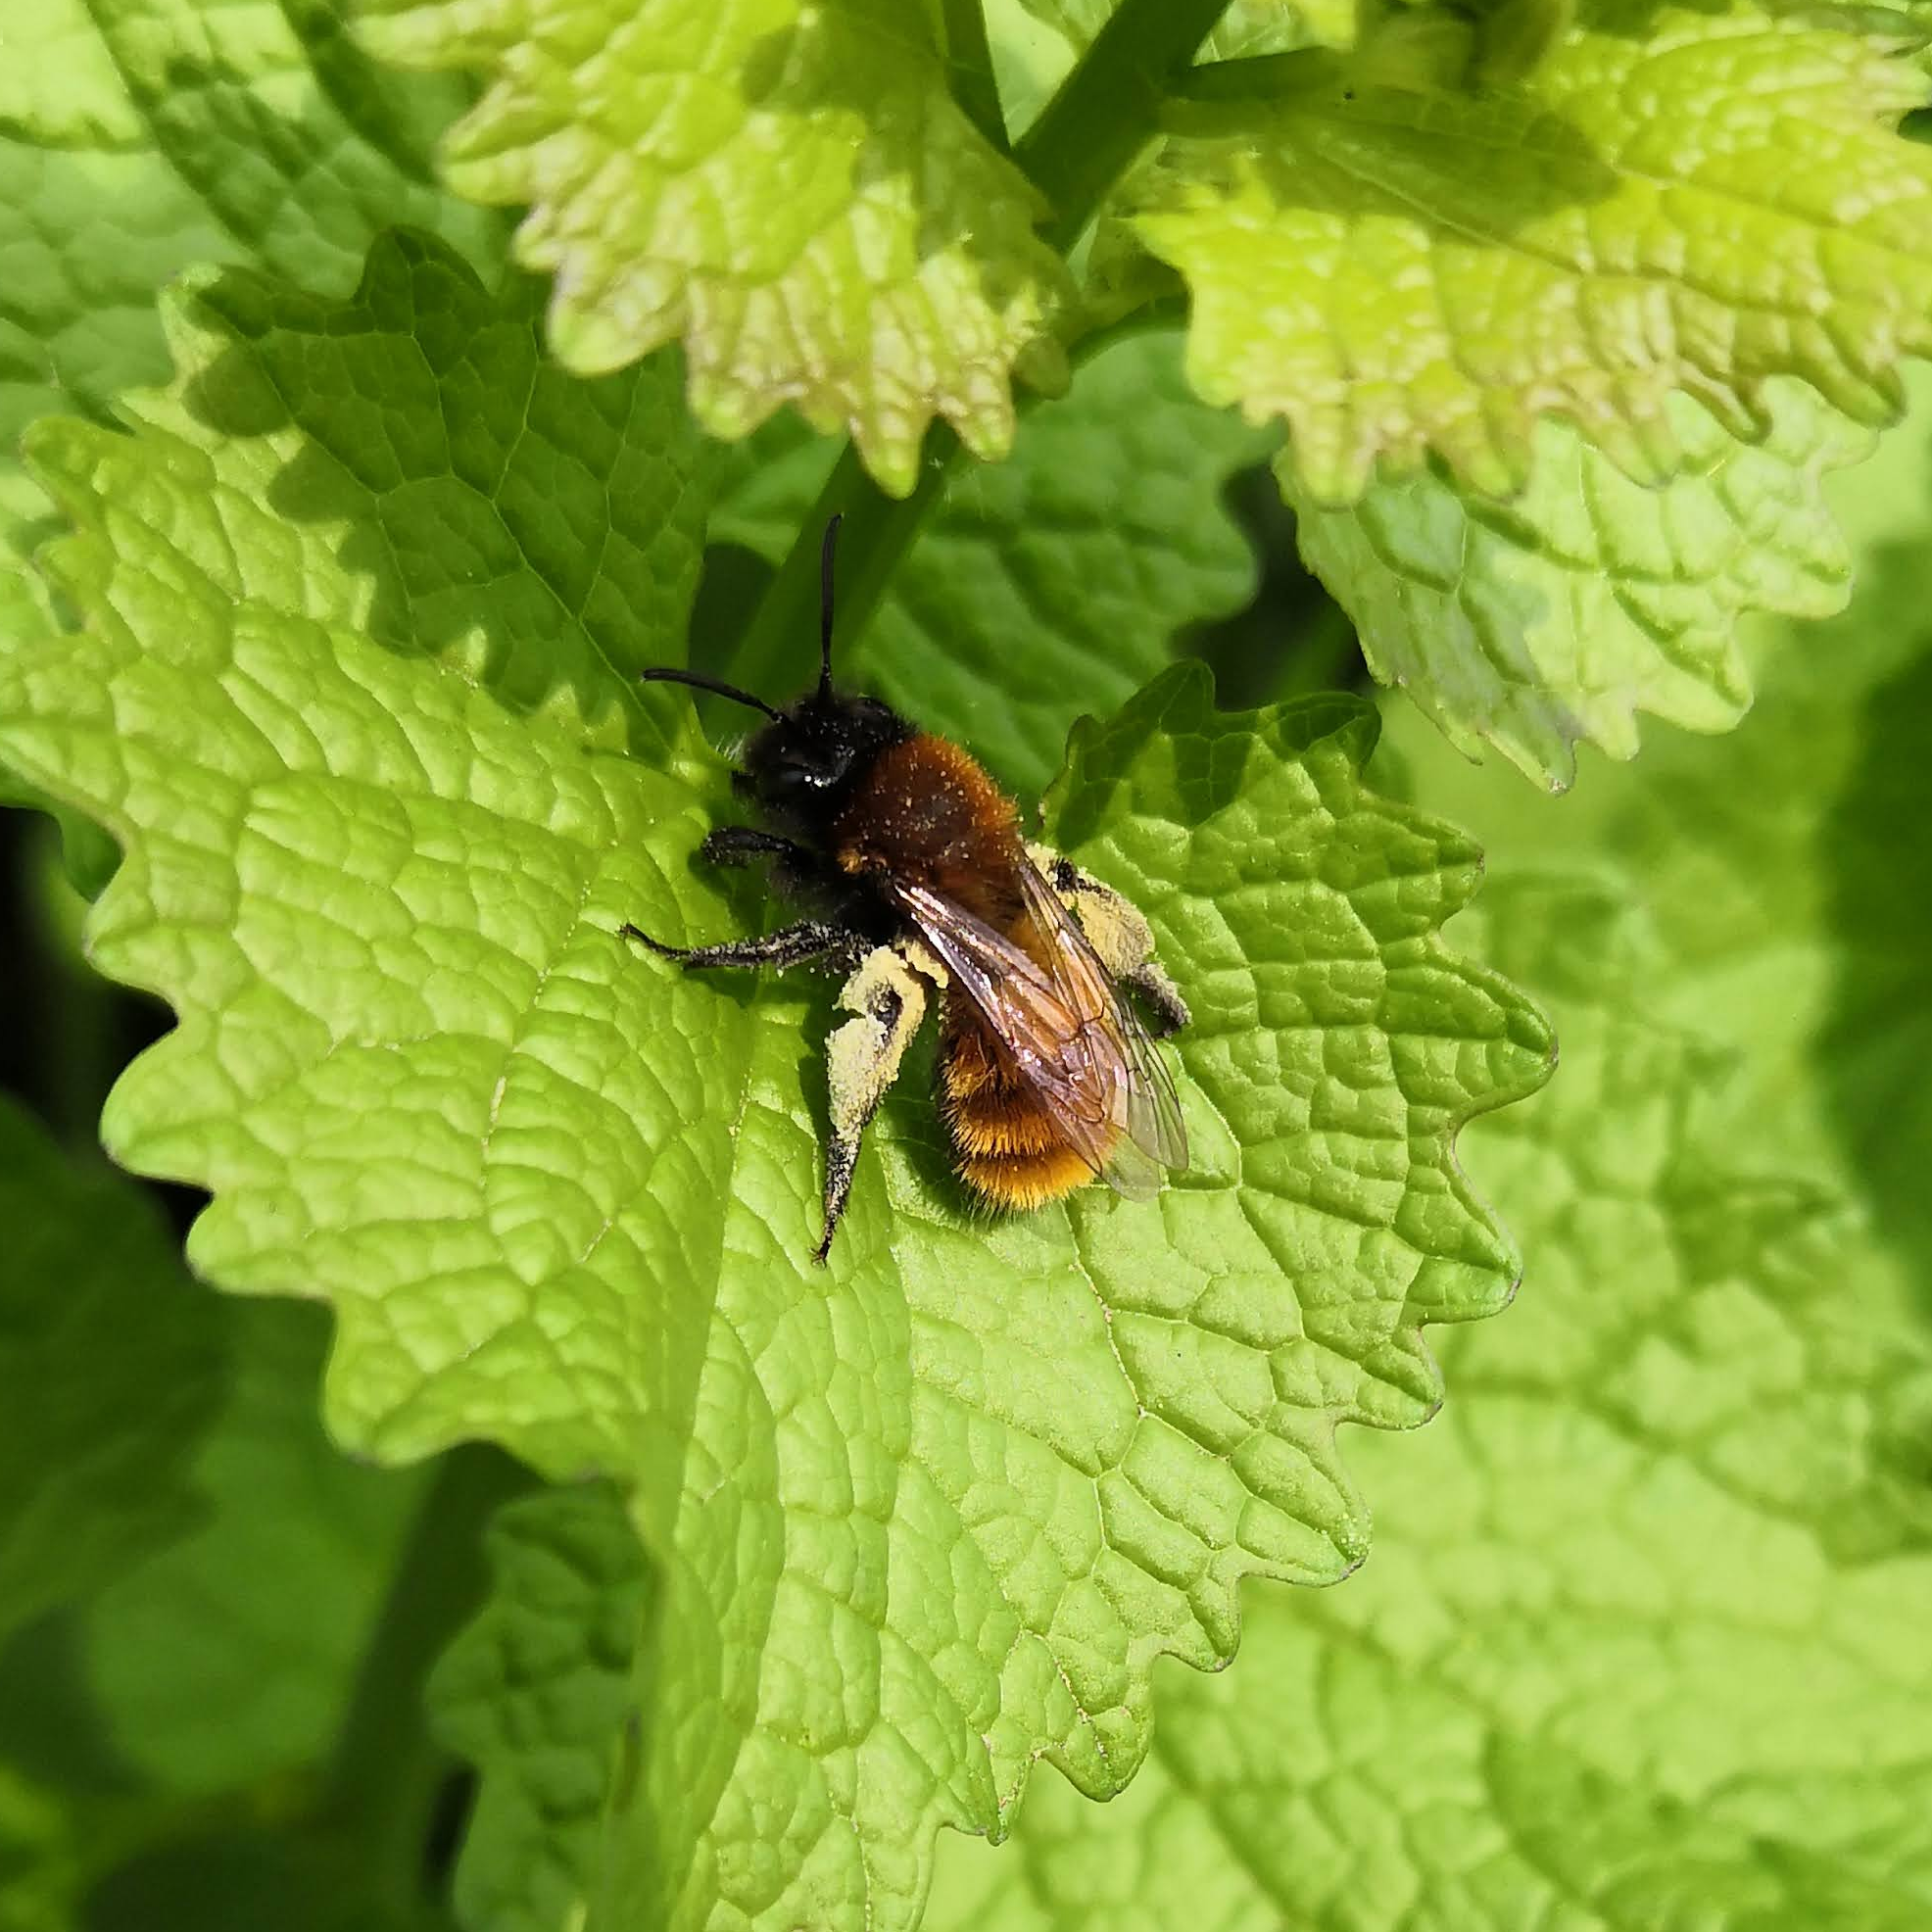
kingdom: Animalia
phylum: Arthropoda
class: Insecta
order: Hymenoptera
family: Andrenidae
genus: Andrena
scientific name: Andrena fulva
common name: Tawny mining bee
